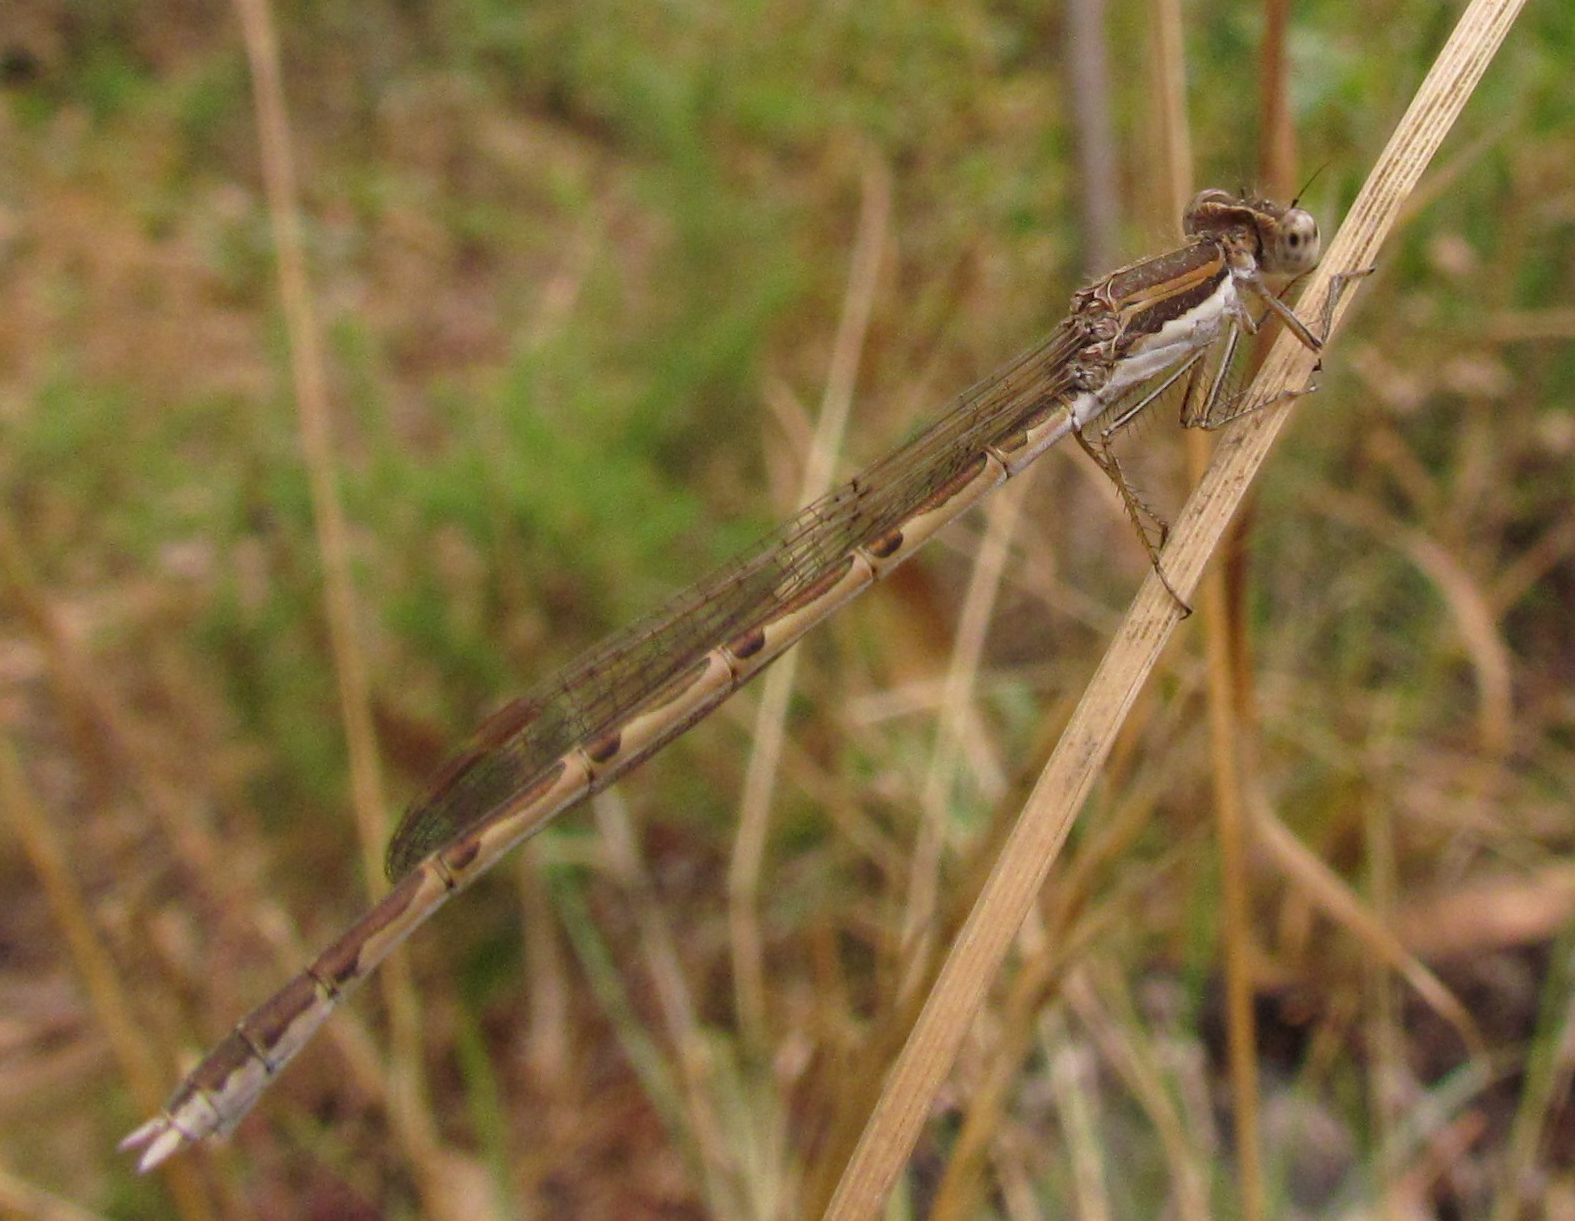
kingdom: Animalia
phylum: Arthropoda
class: Insecta
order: Odonata
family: Lestidae
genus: Sympecma
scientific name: Sympecma fusca
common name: Common winter damsel
